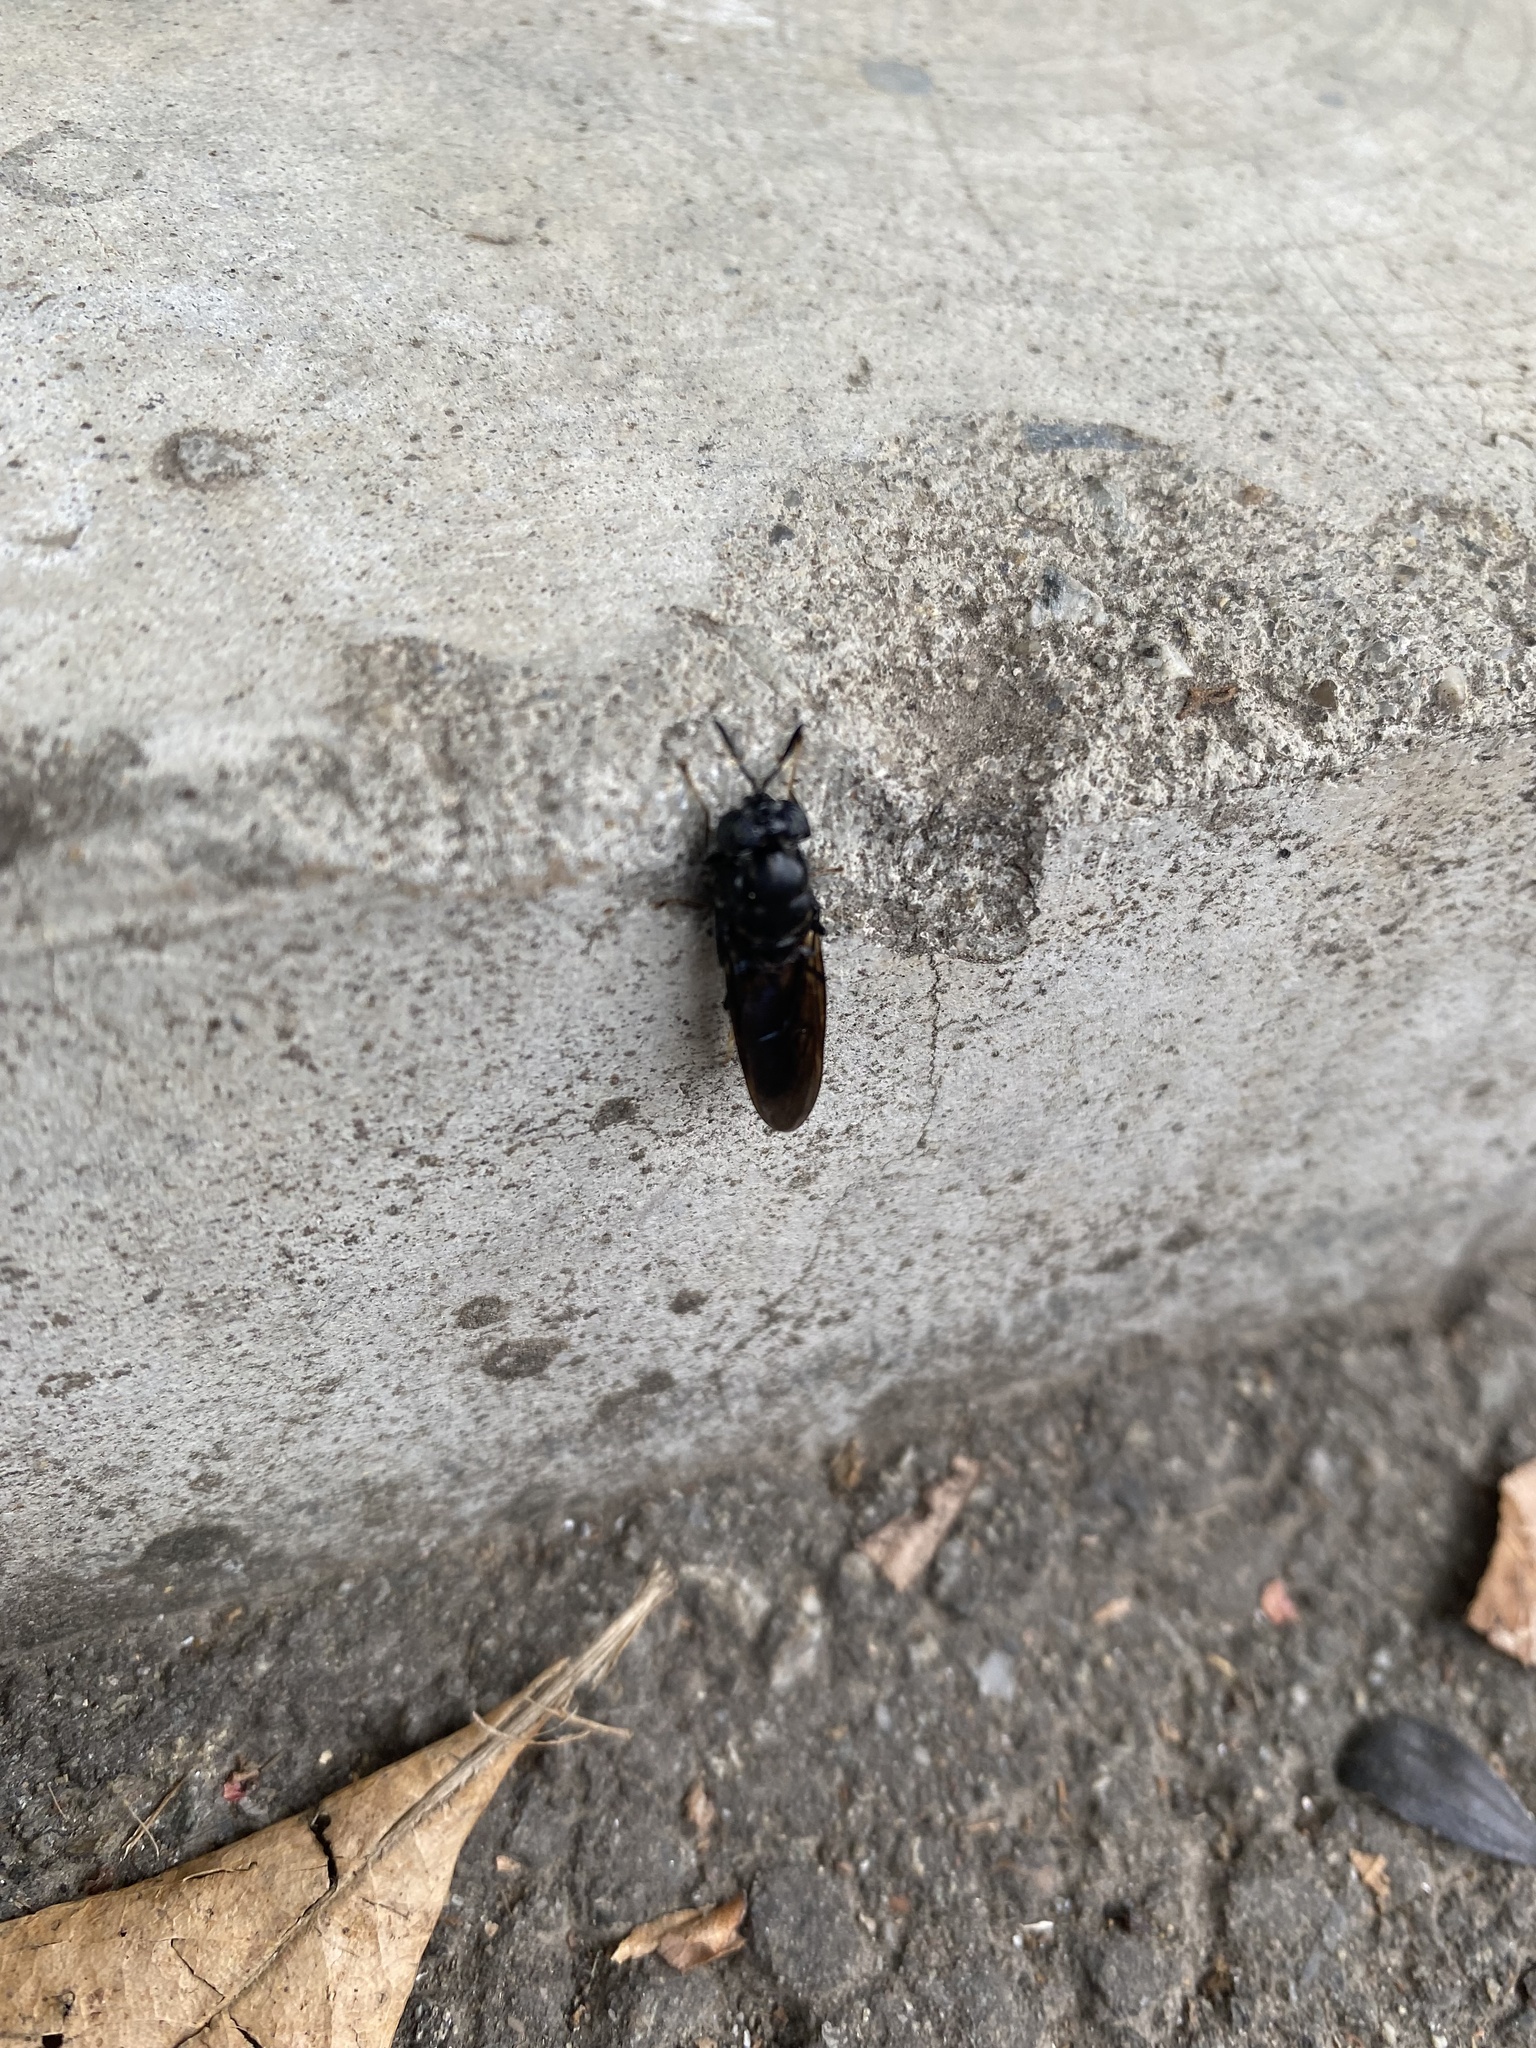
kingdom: Animalia
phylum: Arthropoda
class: Insecta
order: Diptera
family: Stratiomyidae
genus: Hermetia
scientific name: Hermetia illucens
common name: Black soldier fly
